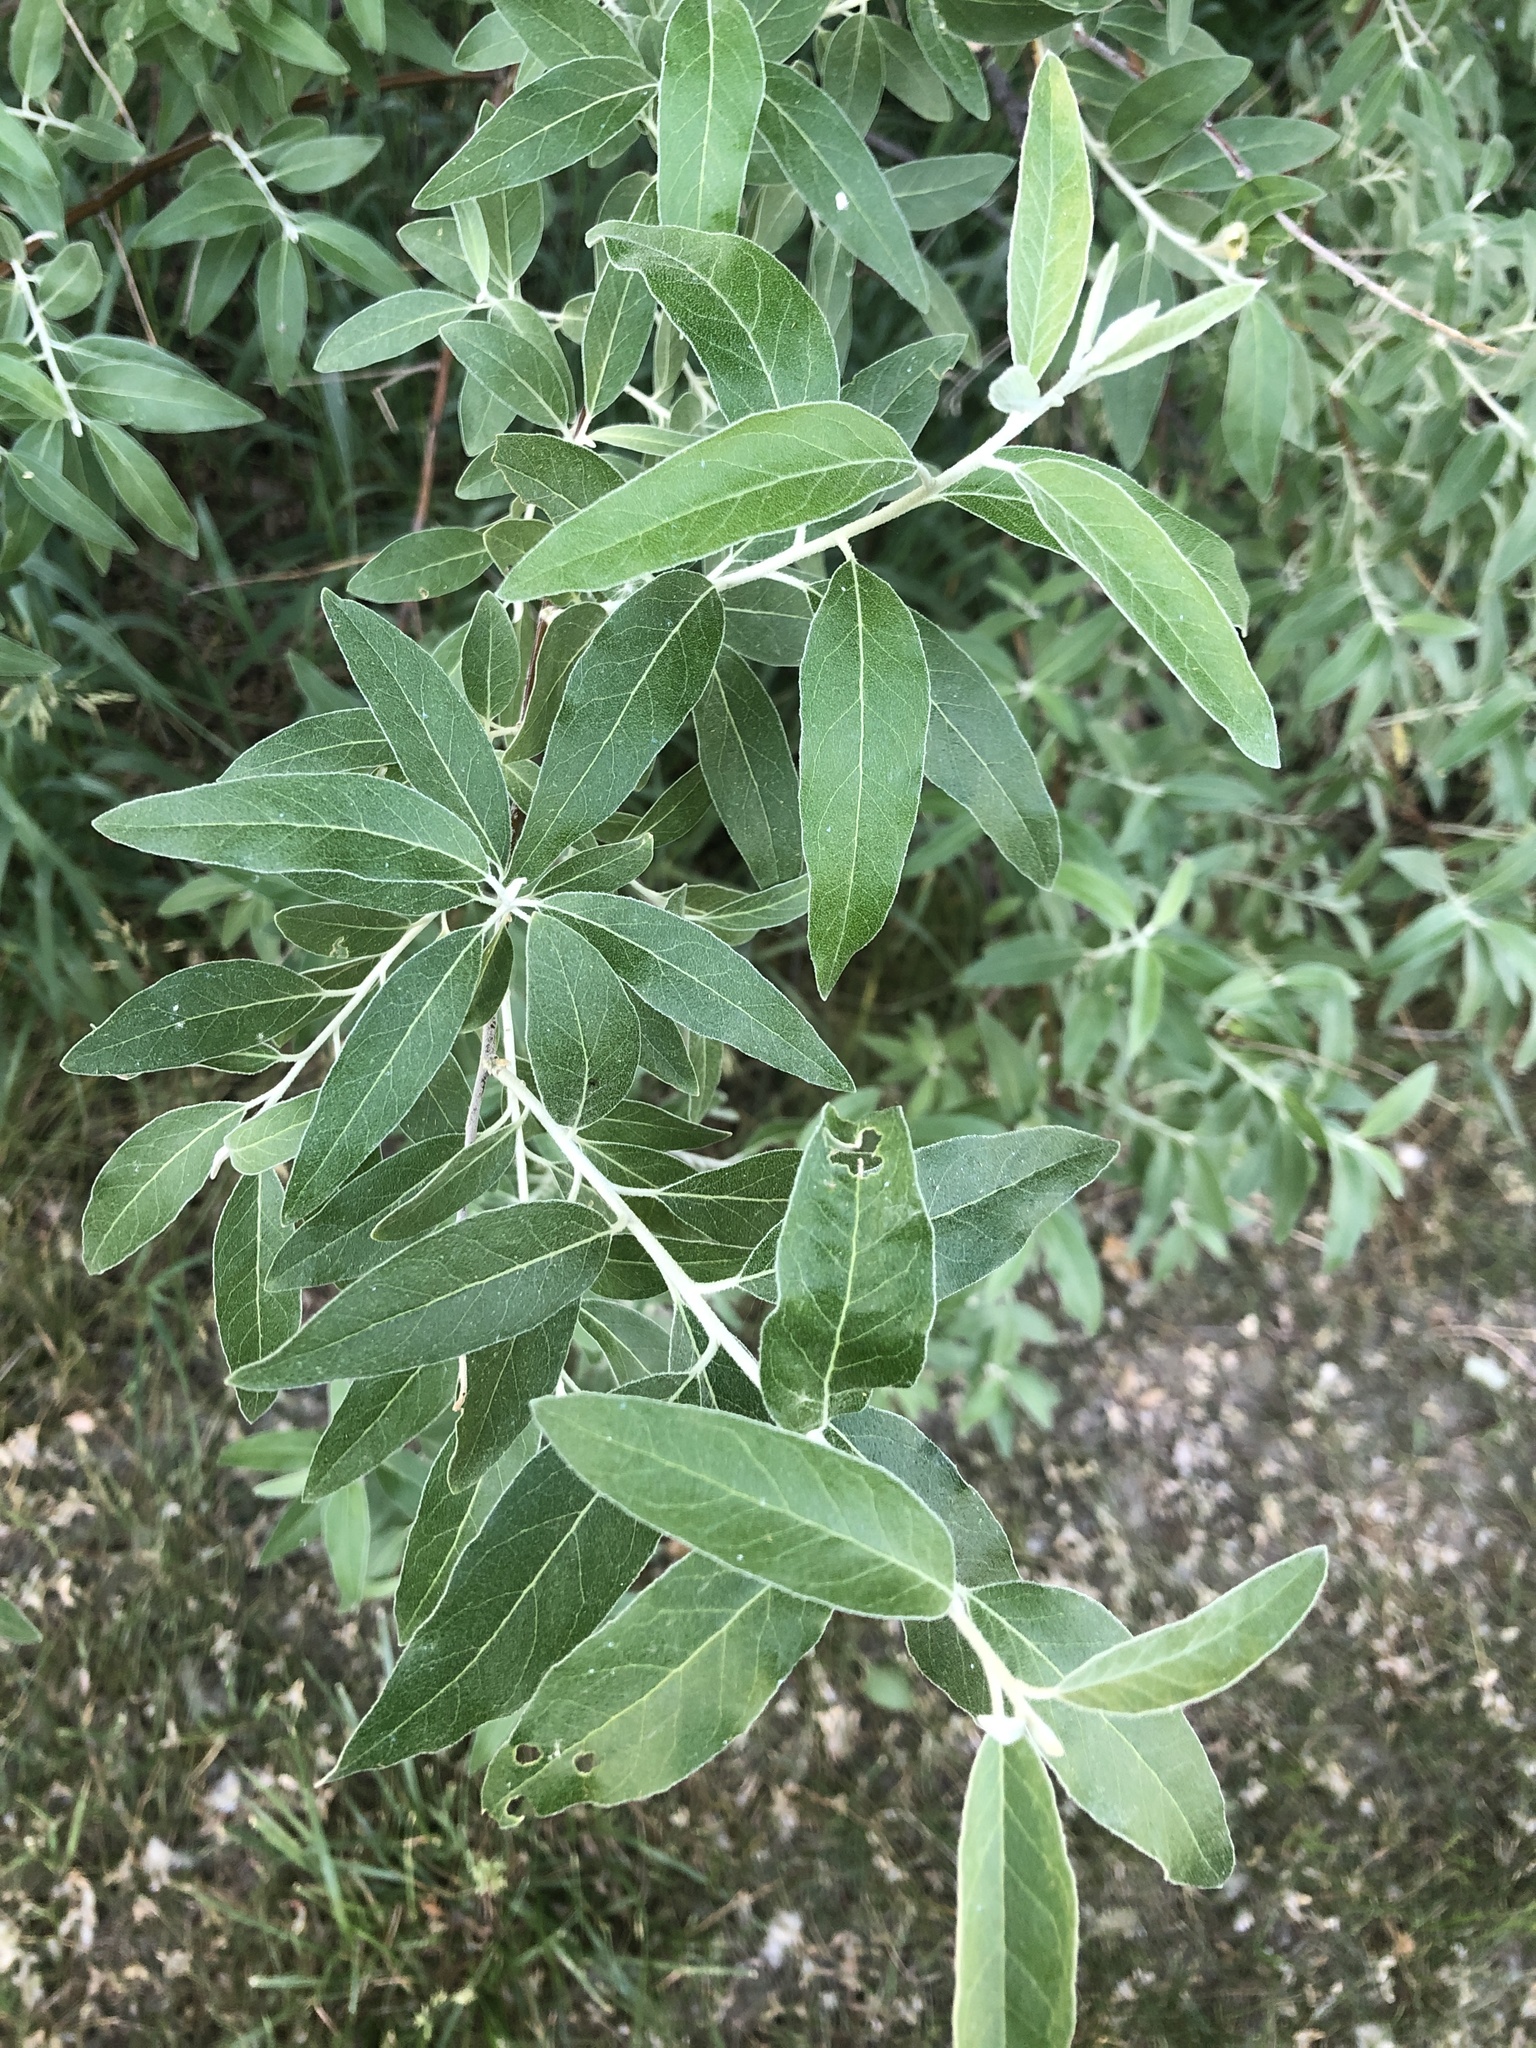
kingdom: Plantae
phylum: Tracheophyta
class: Magnoliopsida
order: Rosales
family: Elaeagnaceae
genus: Elaeagnus
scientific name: Elaeagnus angustifolia
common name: Russian olive
